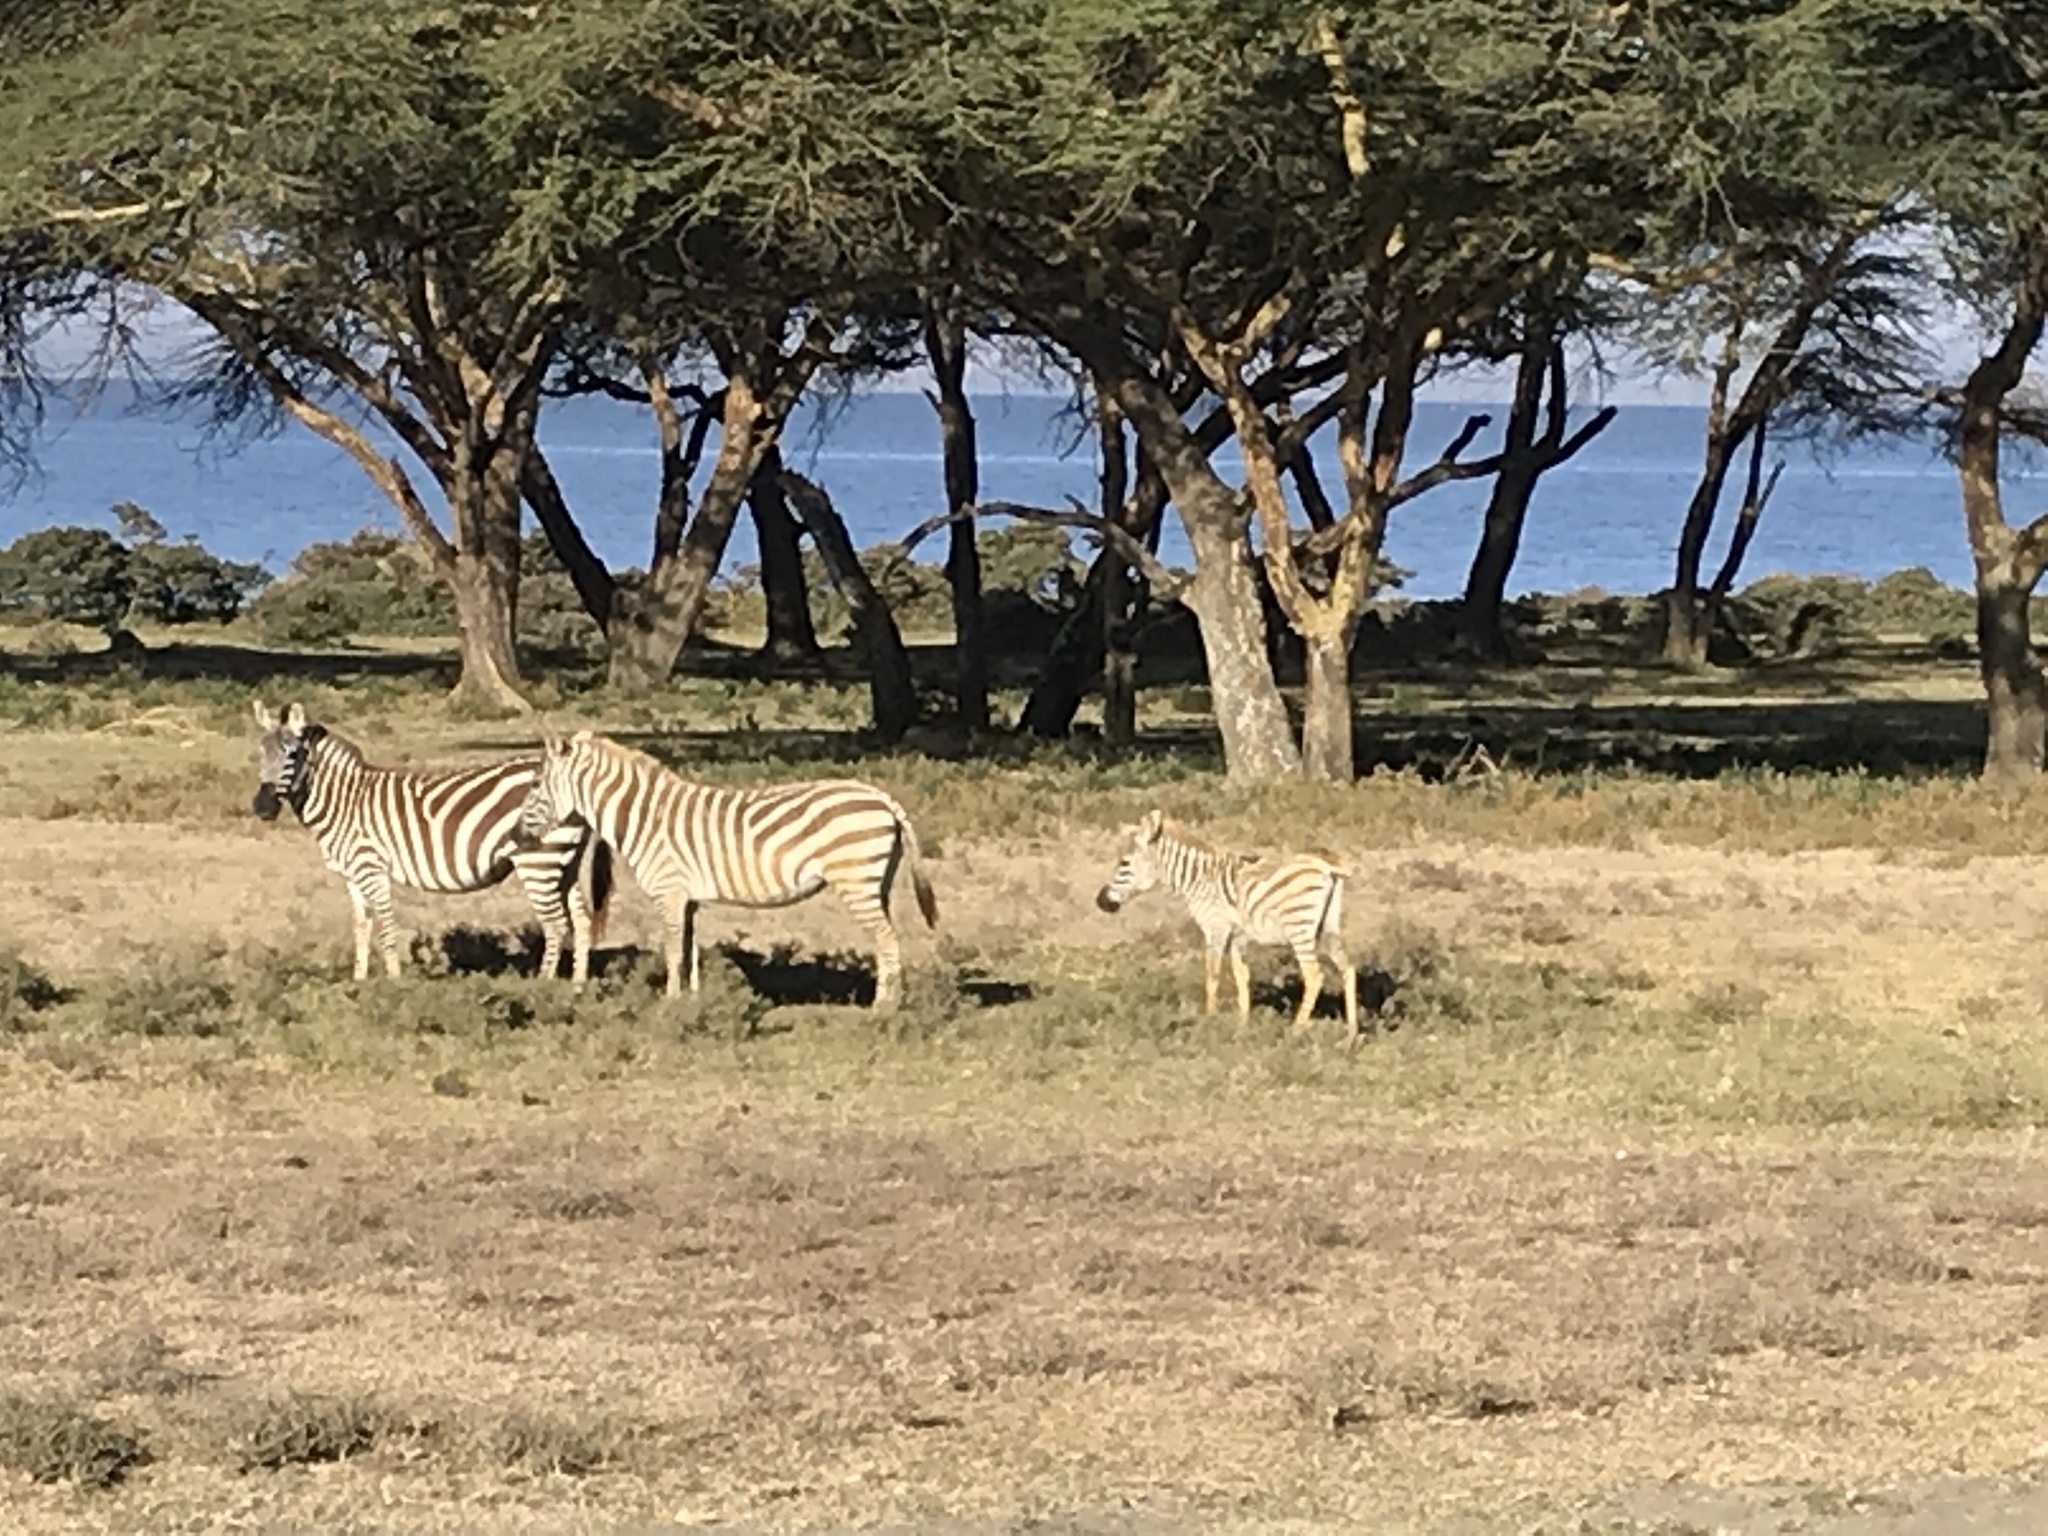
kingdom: Animalia
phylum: Chordata
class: Mammalia
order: Perissodactyla
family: Equidae
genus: Equus
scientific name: Equus quagga
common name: Plains zebra
